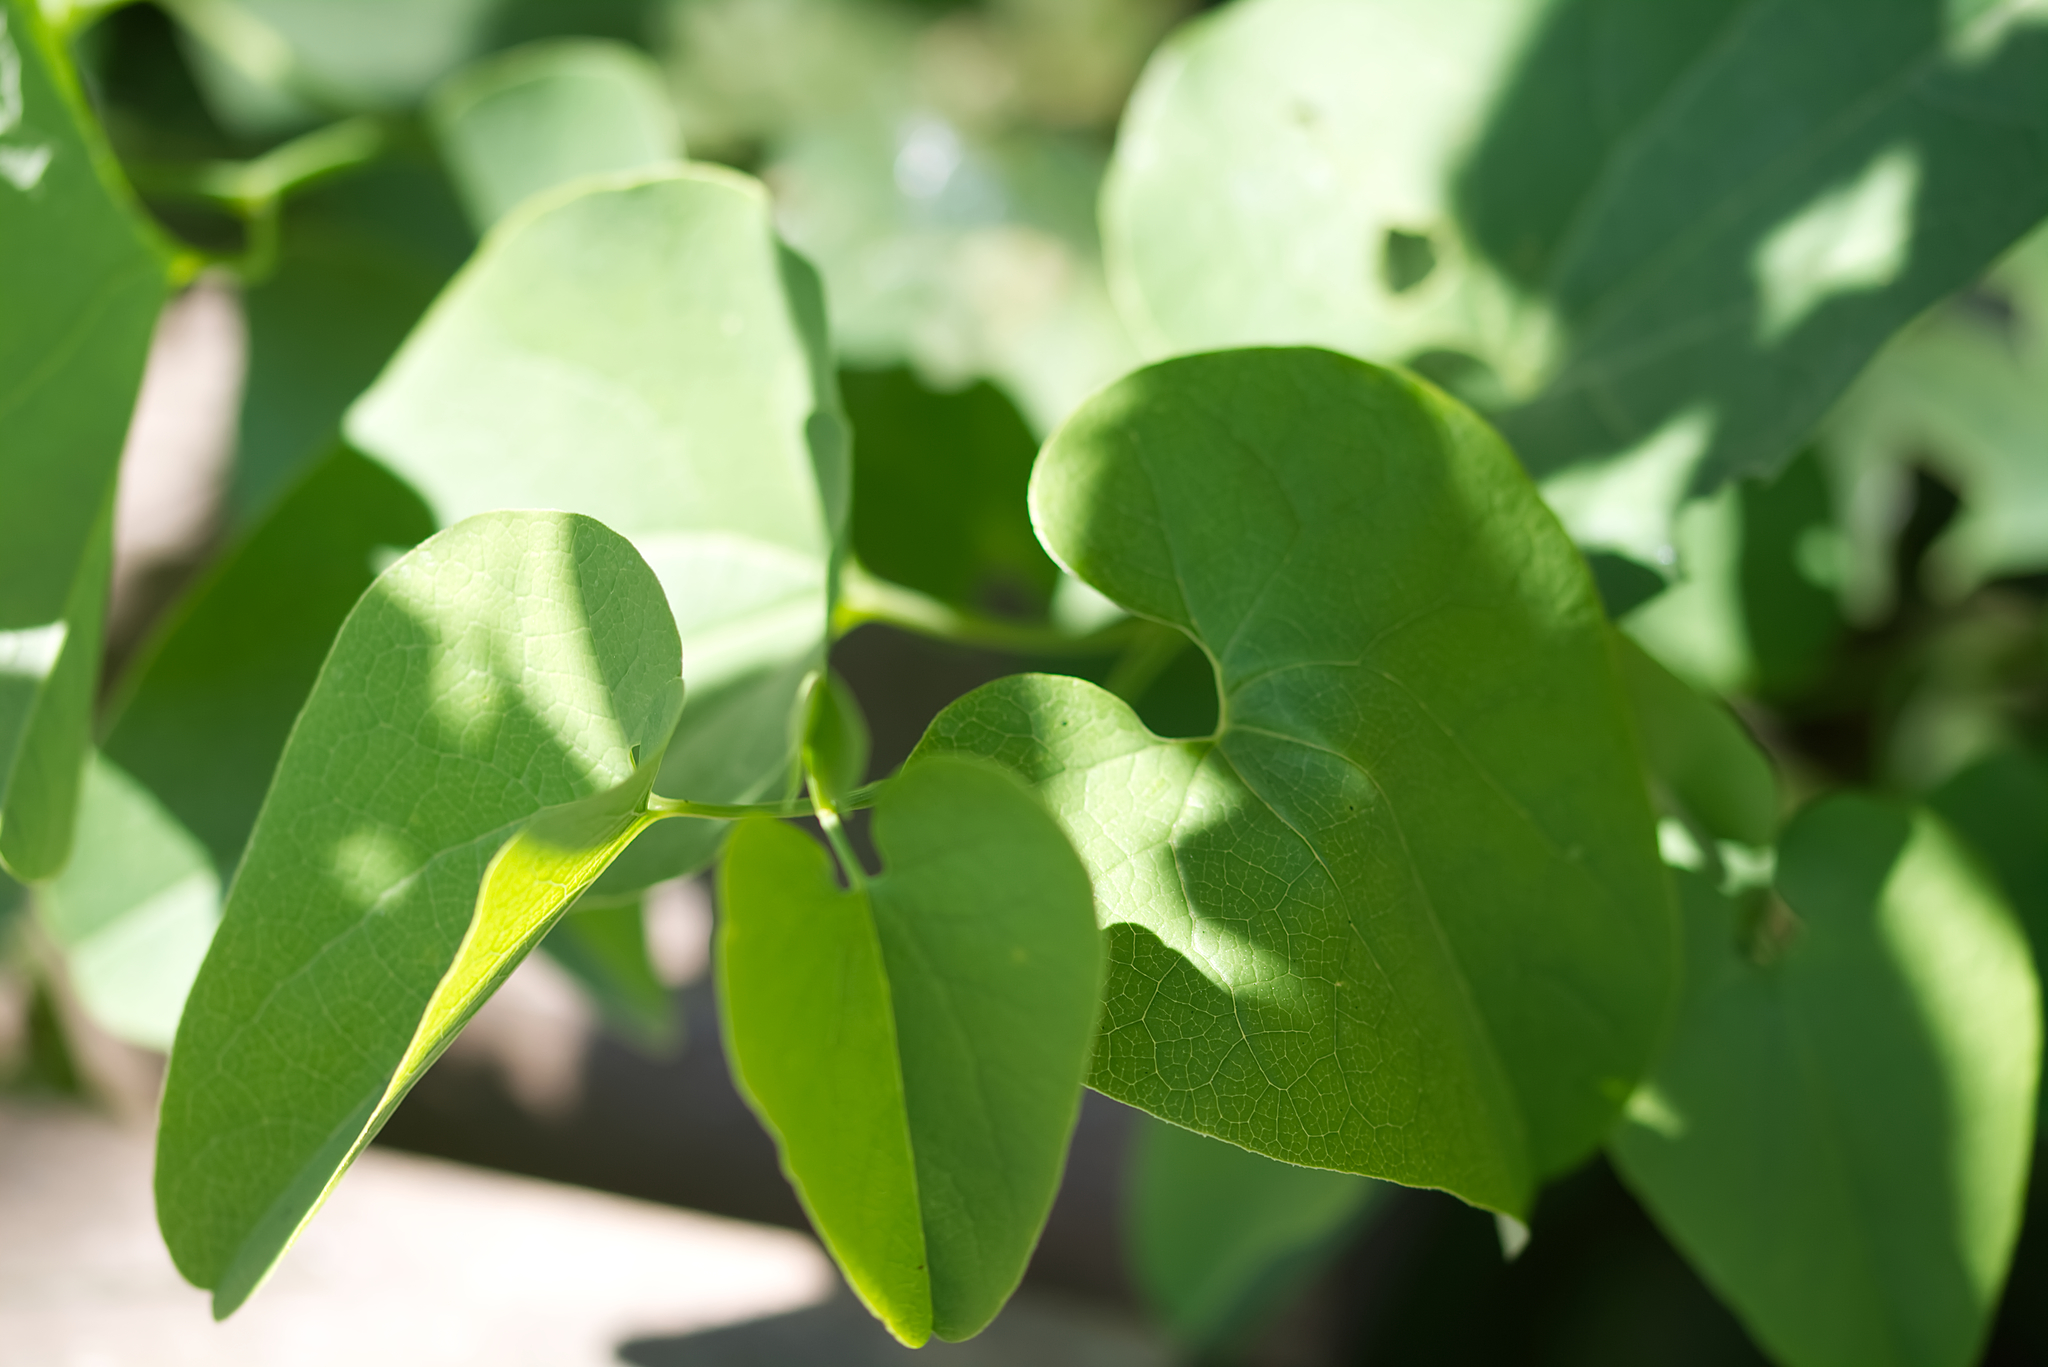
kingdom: Plantae
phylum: Tracheophyta
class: Magnoliopsida
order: Piperales
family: Aristolochiaceae
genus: Aristolochia
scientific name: Aristolochia clematitis
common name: Birthwort
